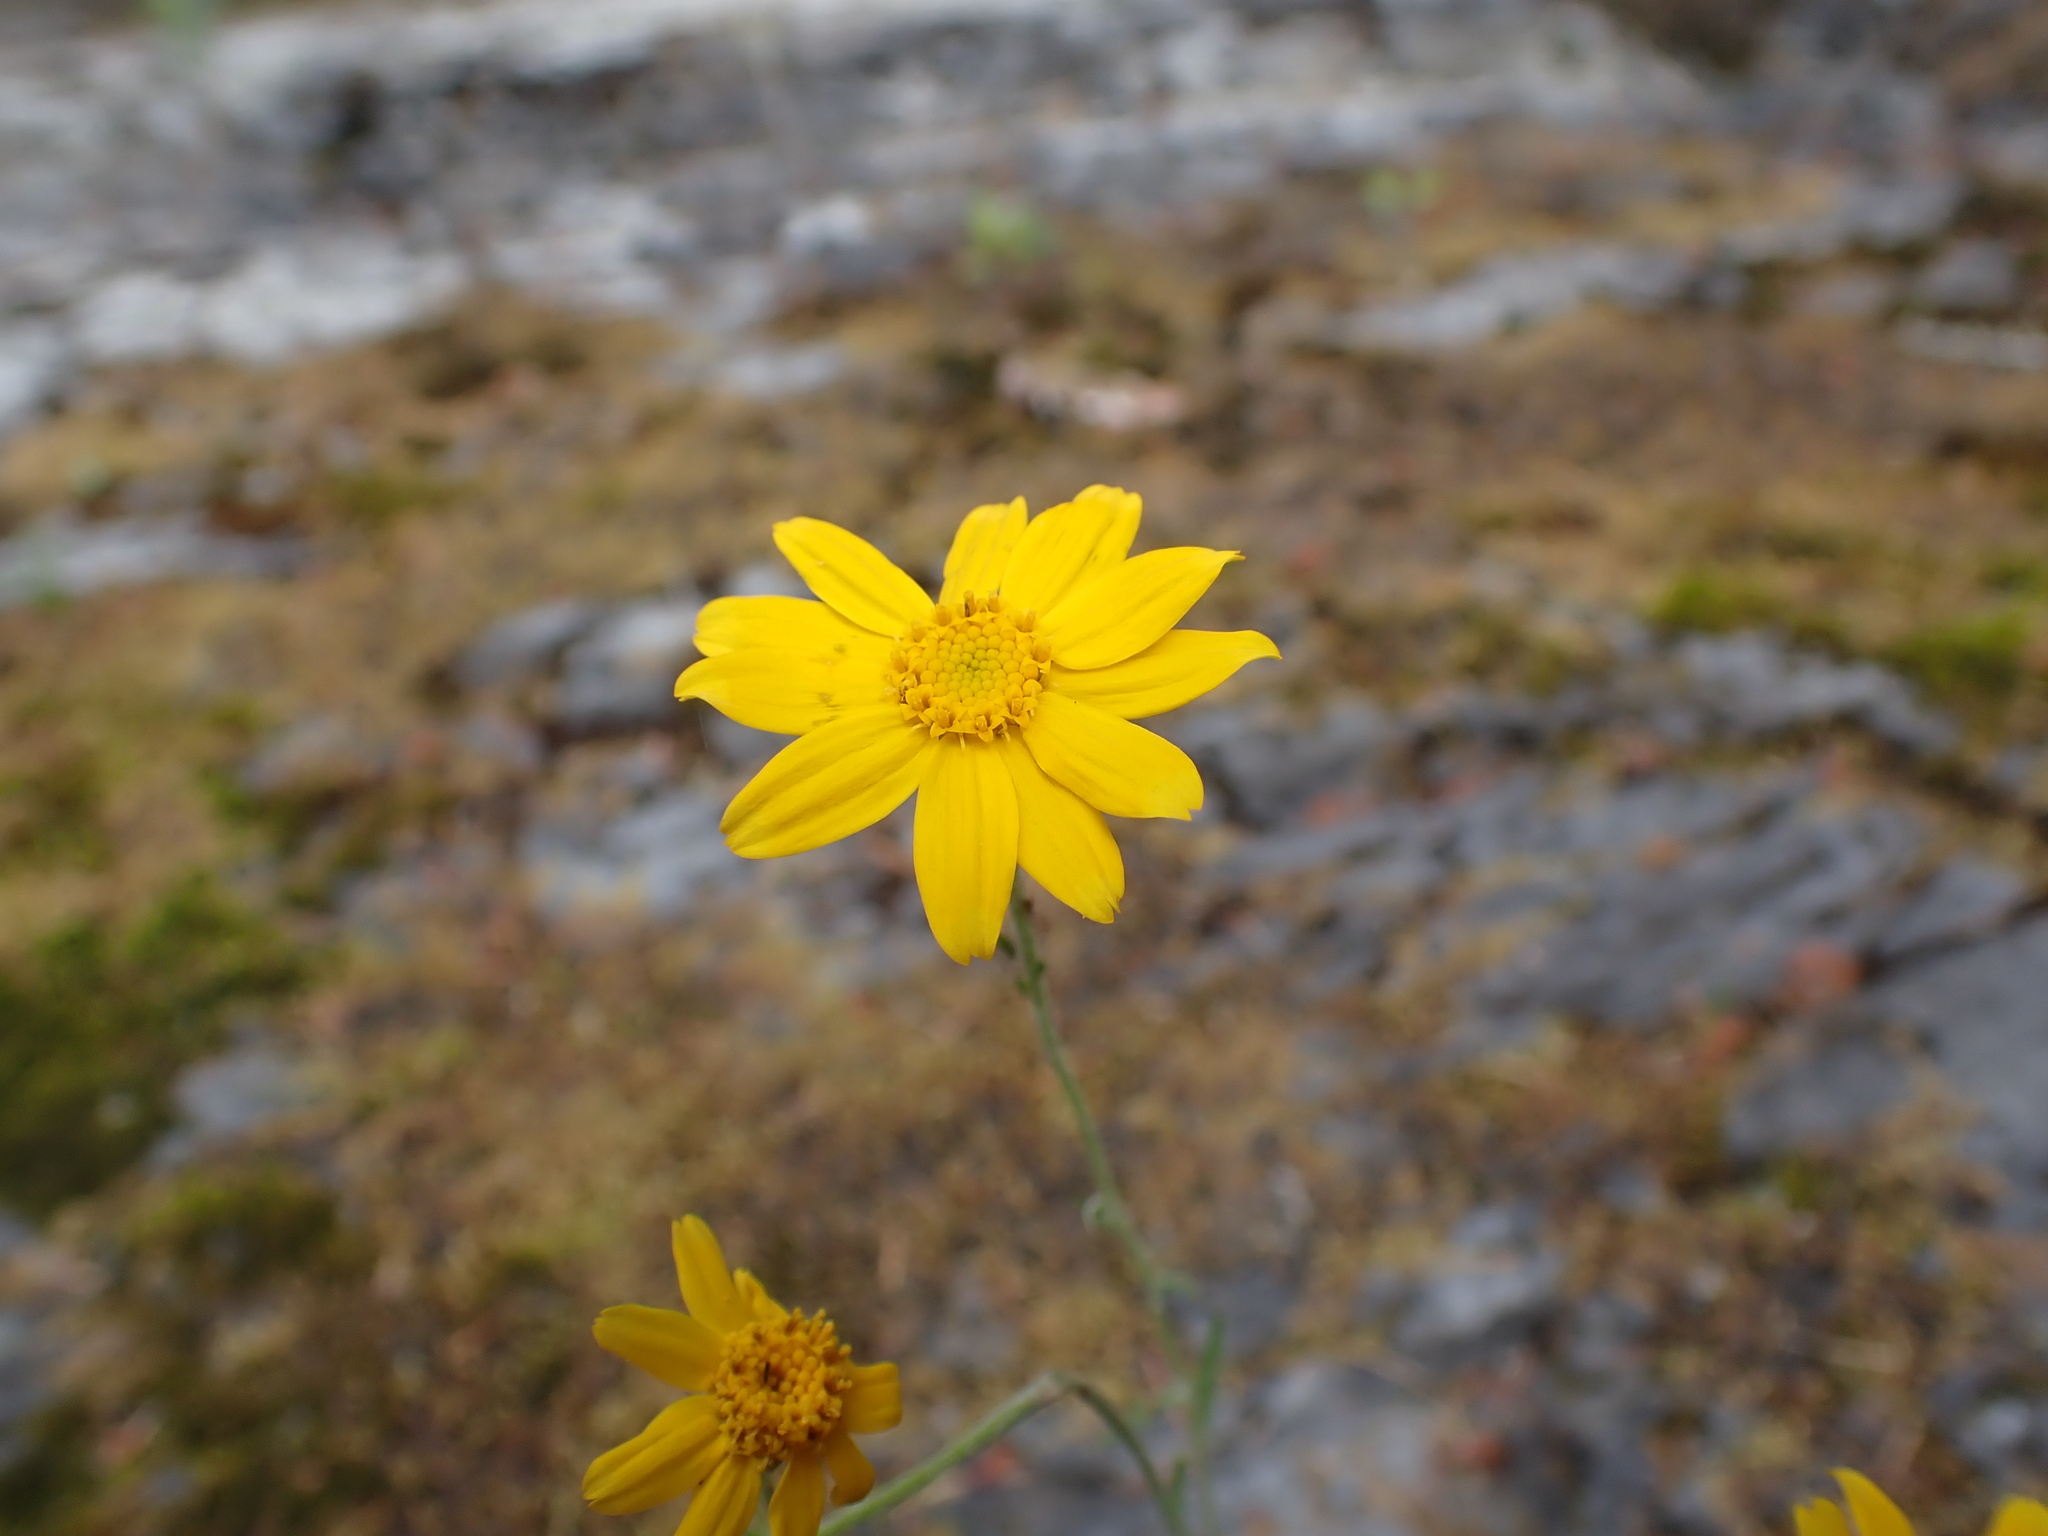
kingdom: Plantae
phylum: Tracheophyta
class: Magnoliopsida
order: Asterales
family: Asteraceae
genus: Eriophyllum
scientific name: Eriophyllum lanatum
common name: Common woolly-sunflower
